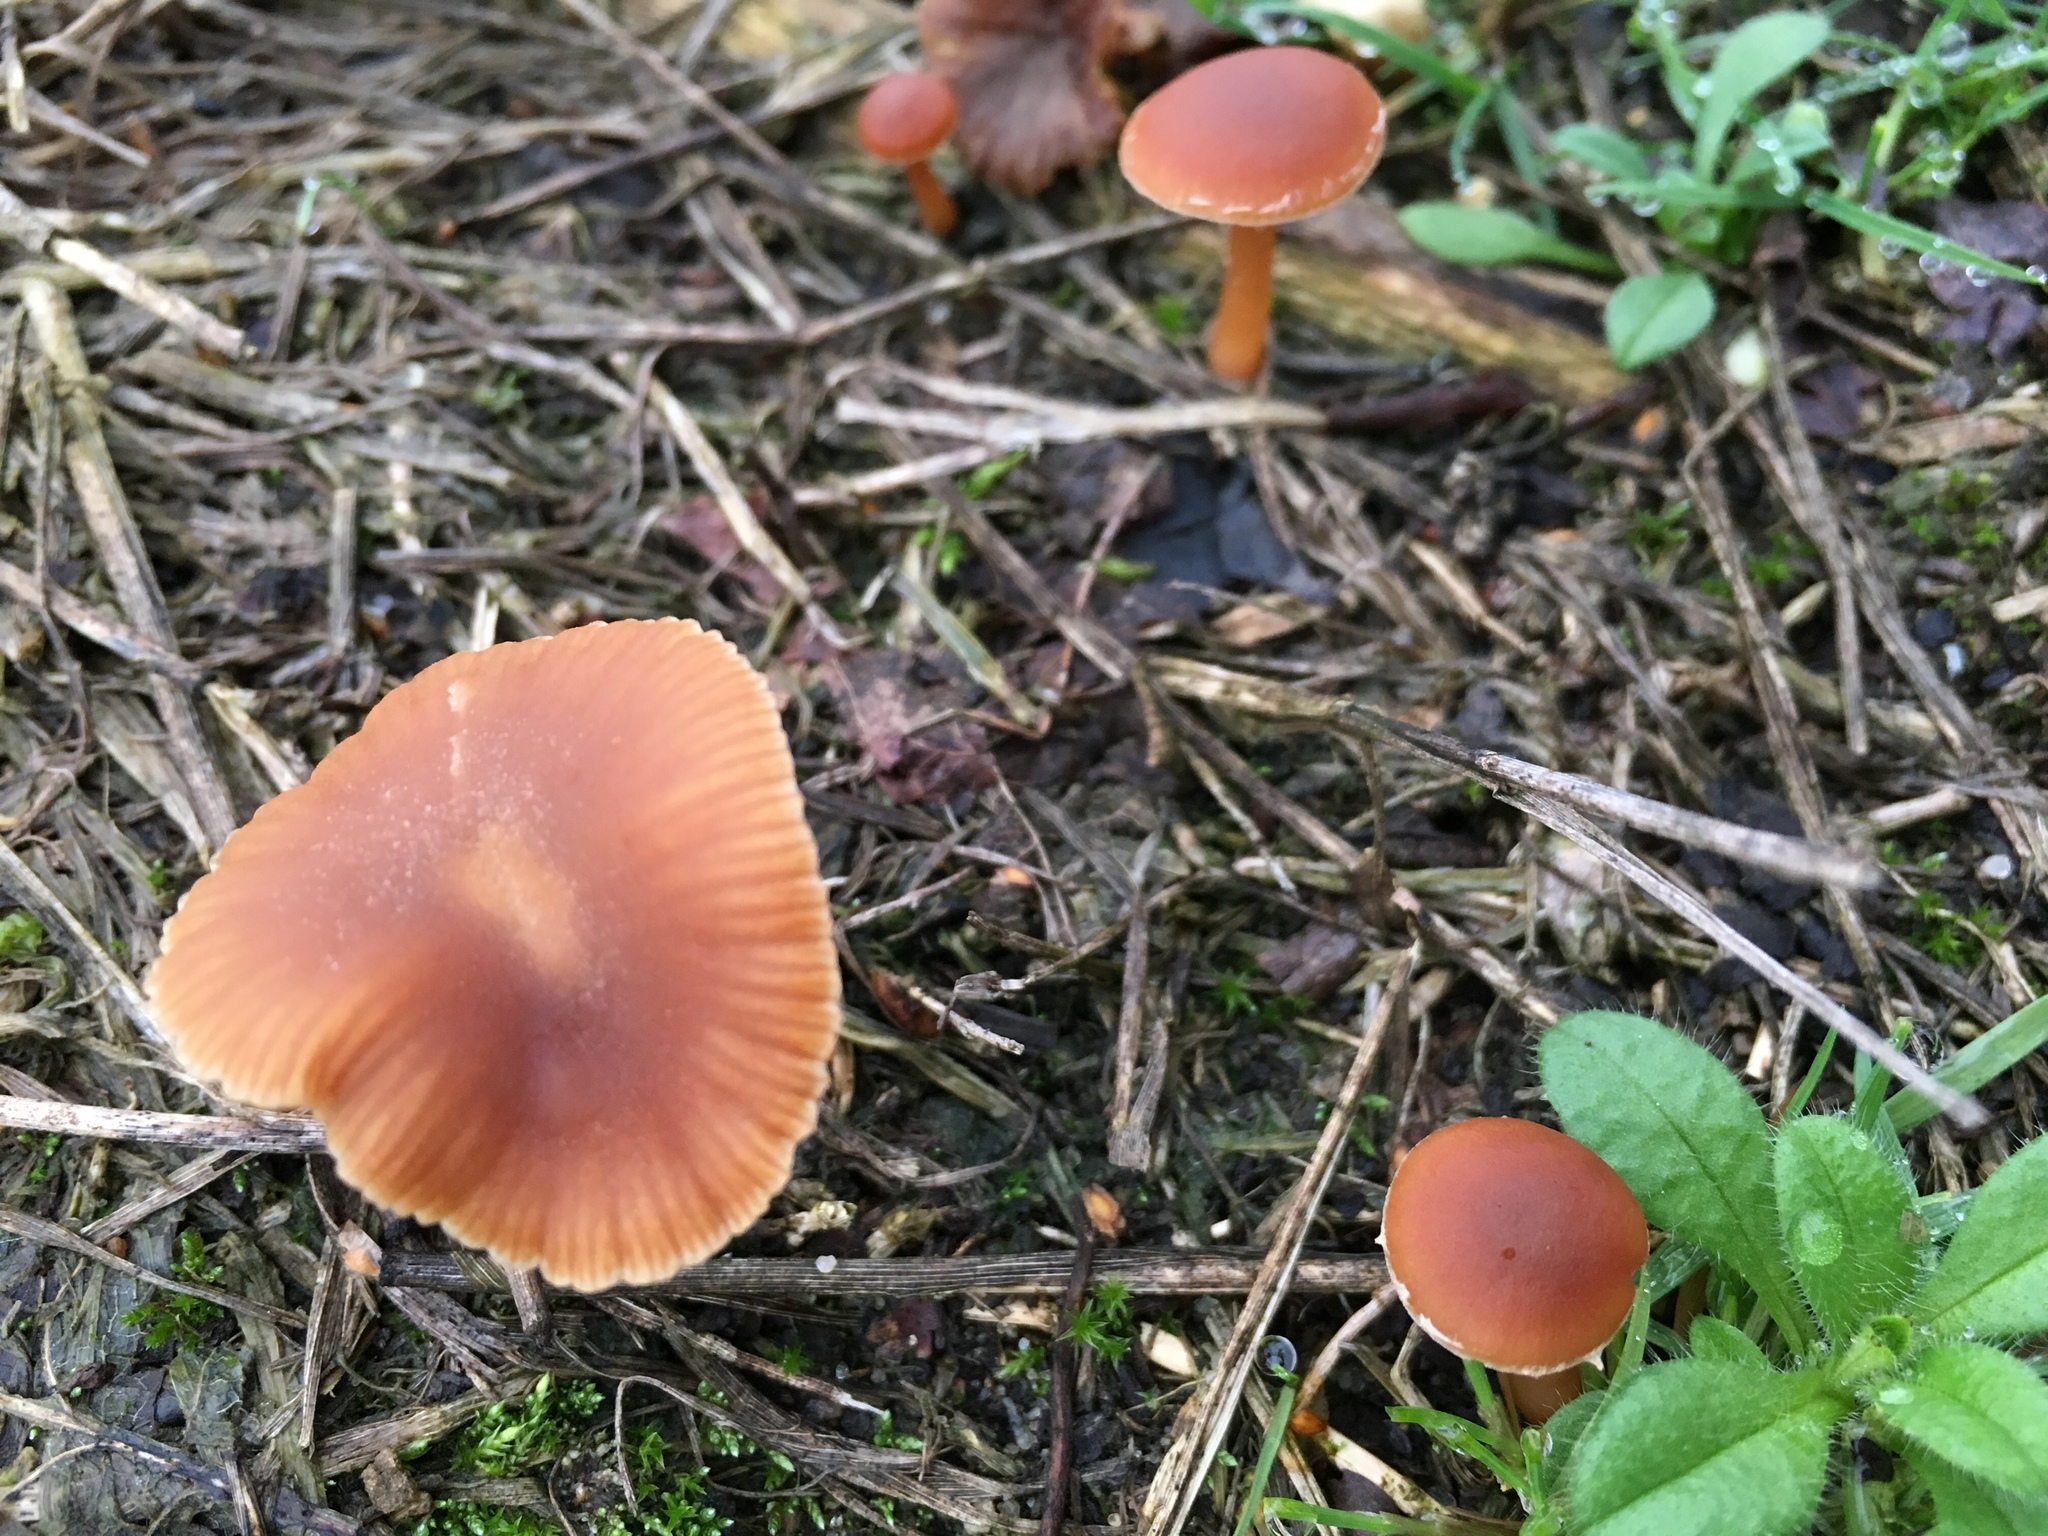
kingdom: Fungi
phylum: Basidiomycota
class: Agaricomycetes
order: Agaricales
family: Tubariaceae
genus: Tubaria
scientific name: Tubaria furfuracea
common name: Scurfy twiglet
